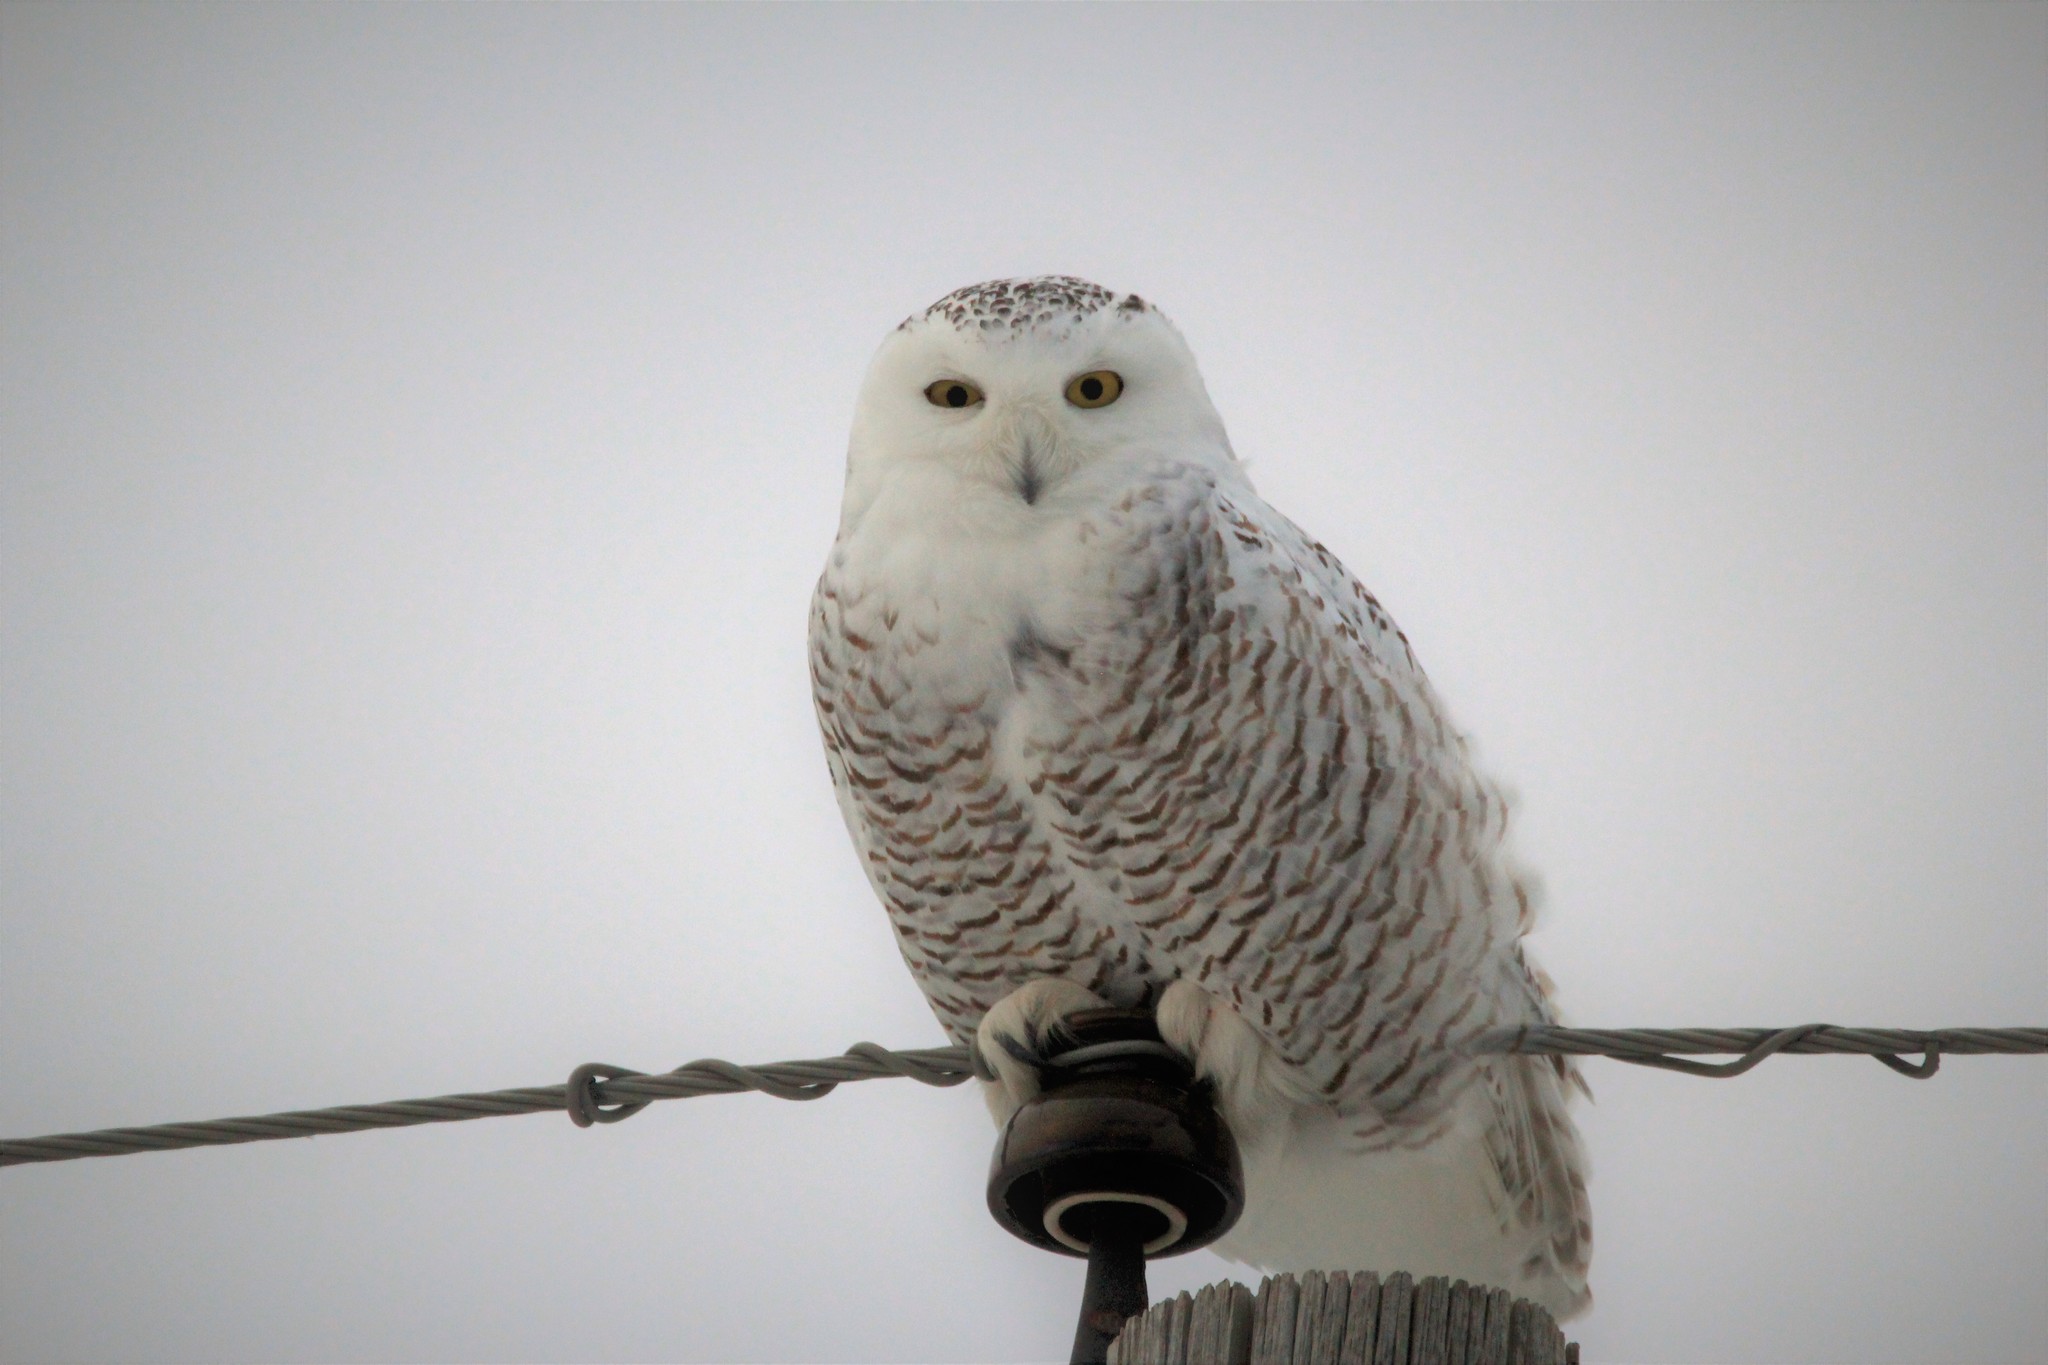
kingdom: Animalia
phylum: Chordata
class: Aves
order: Strigiformes
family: Strigidae
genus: Bubo
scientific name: Bubo scandiacus
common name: Snowy owl
